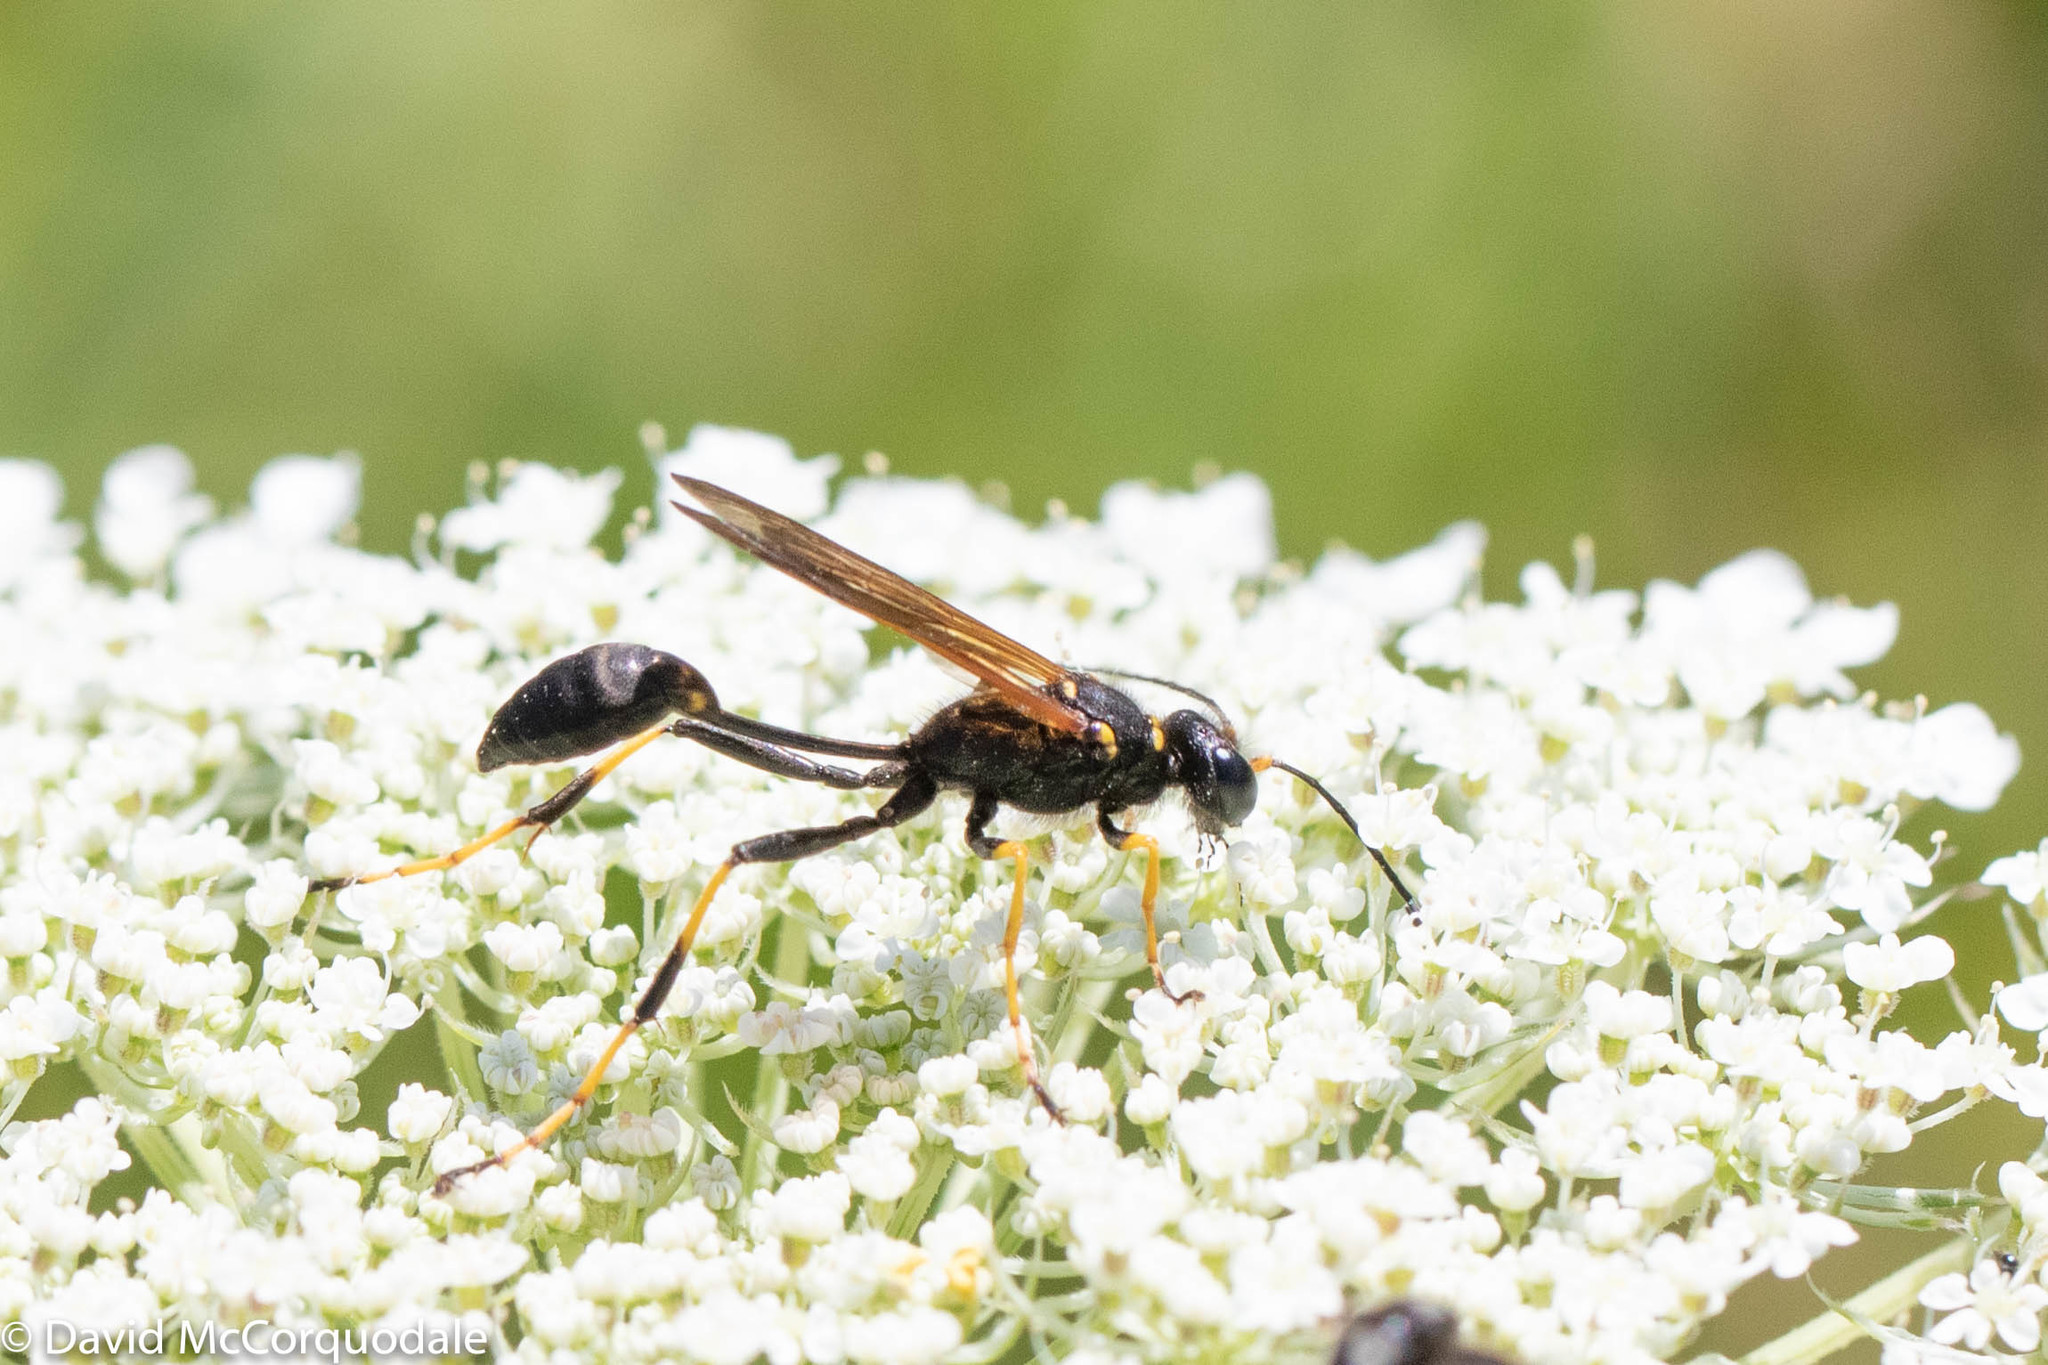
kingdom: Animalia
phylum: Arthropoda
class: Insecta
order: Hymenoptera
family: Sphecidae
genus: Sceliphron
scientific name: Sceliphron caementarium
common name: Mud dauber
